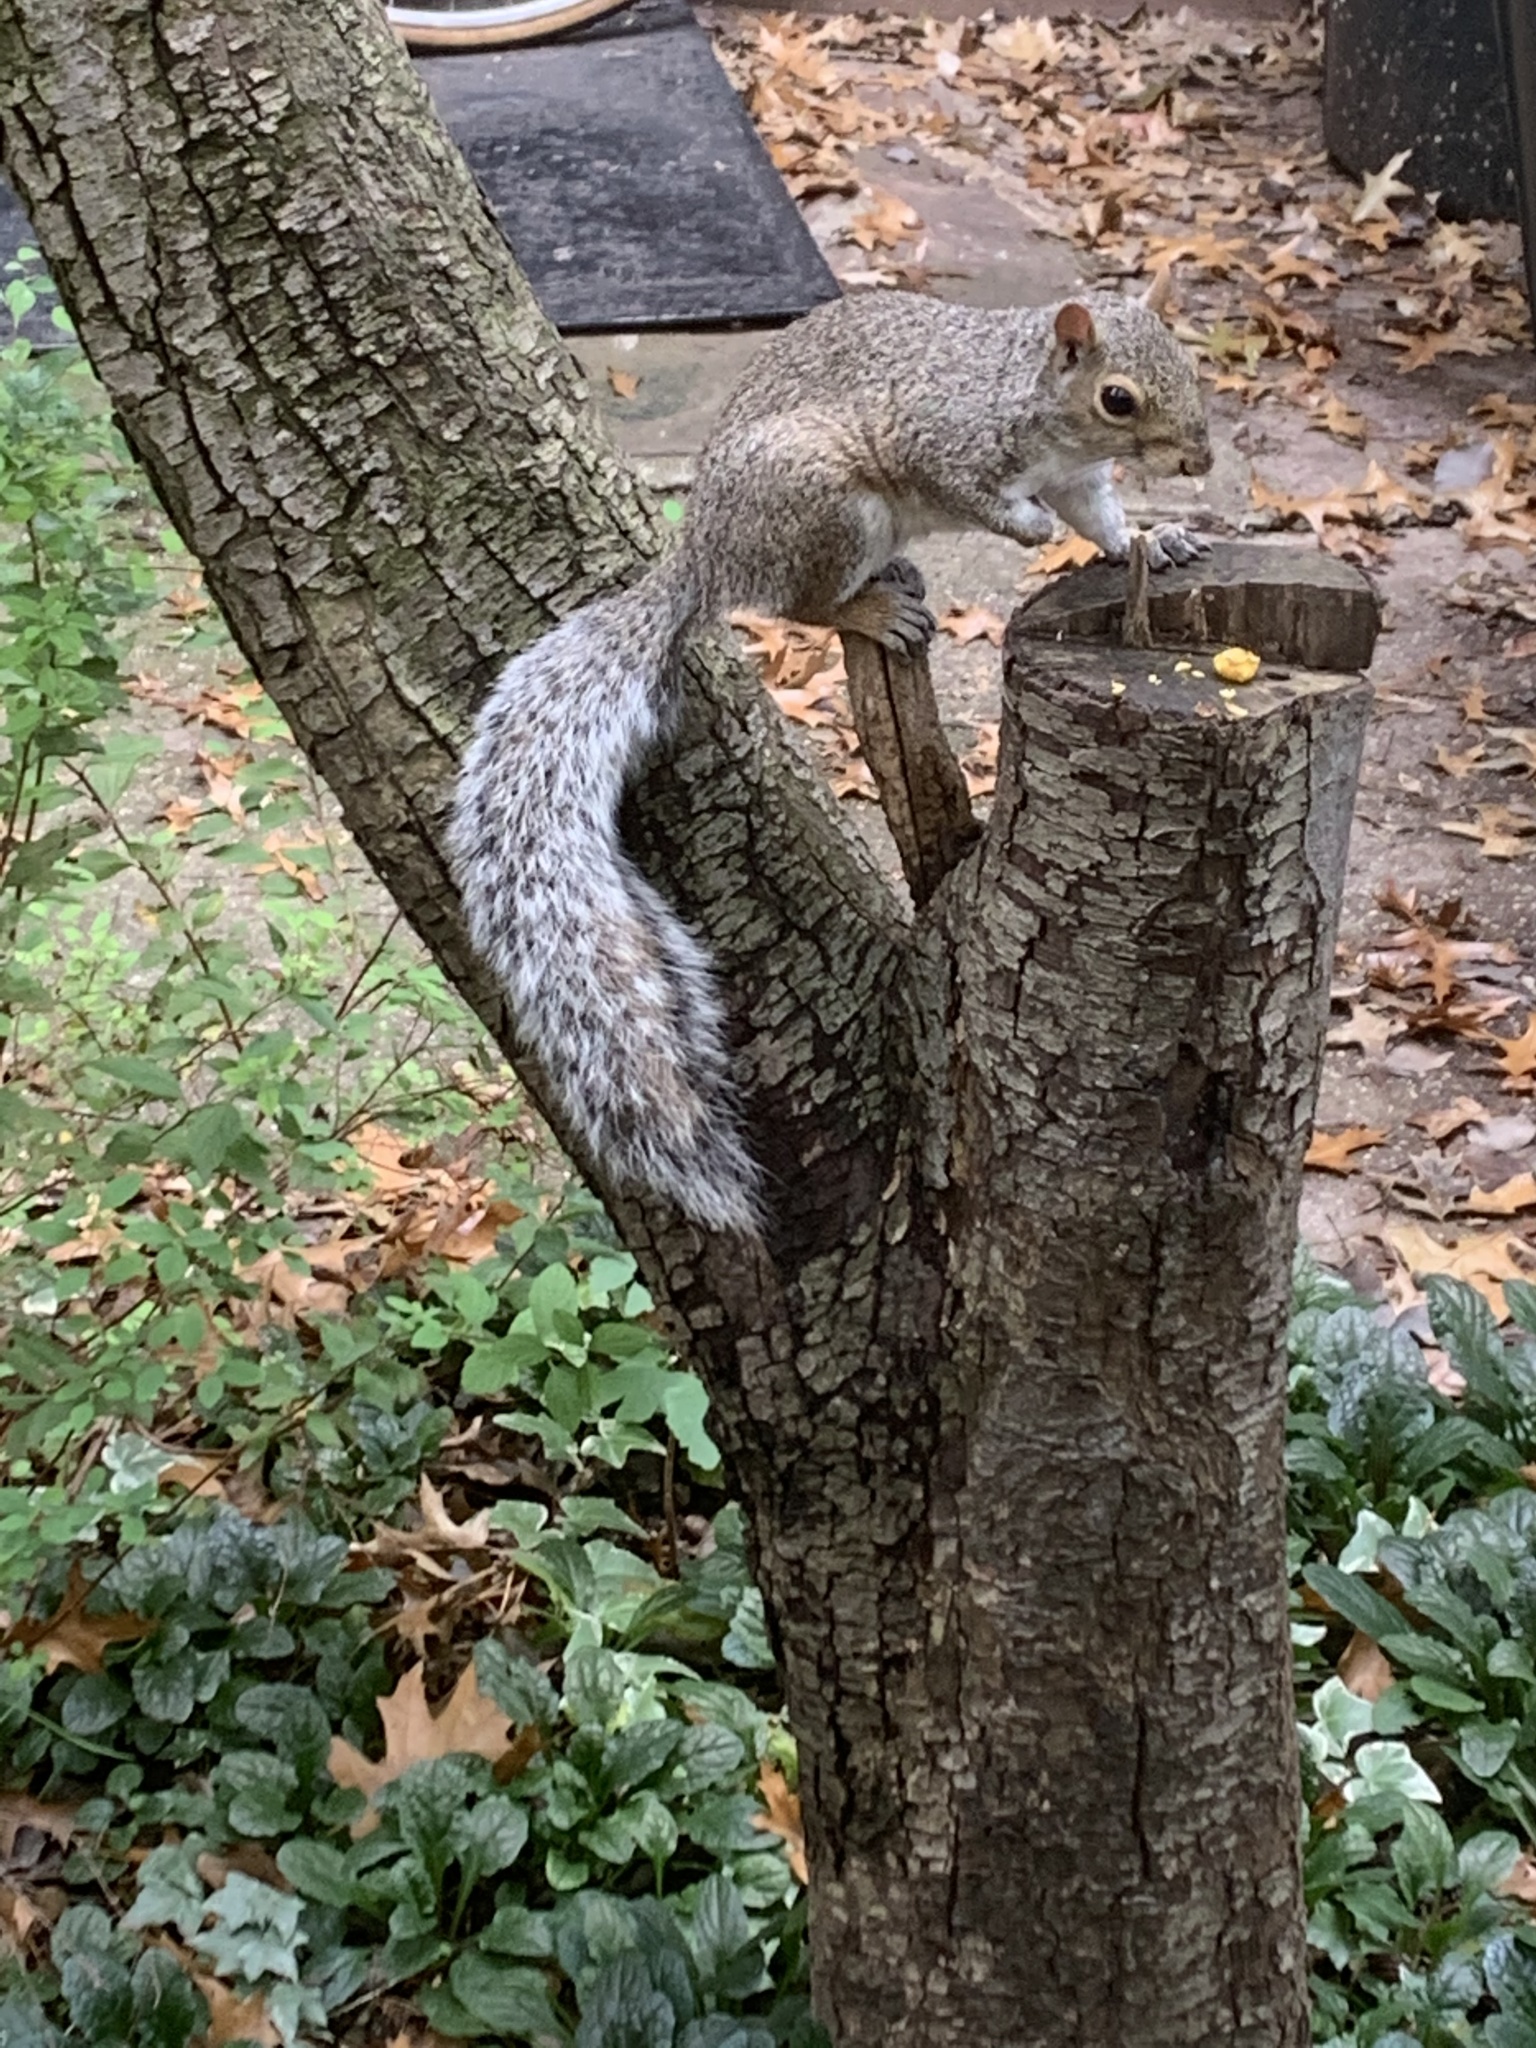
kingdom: Animalia
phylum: Chordata
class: Mammalia
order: Rodentia
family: Sciuridae
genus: Sciurus
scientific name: Sciurus carolinensis
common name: Eastern gray squirrel
